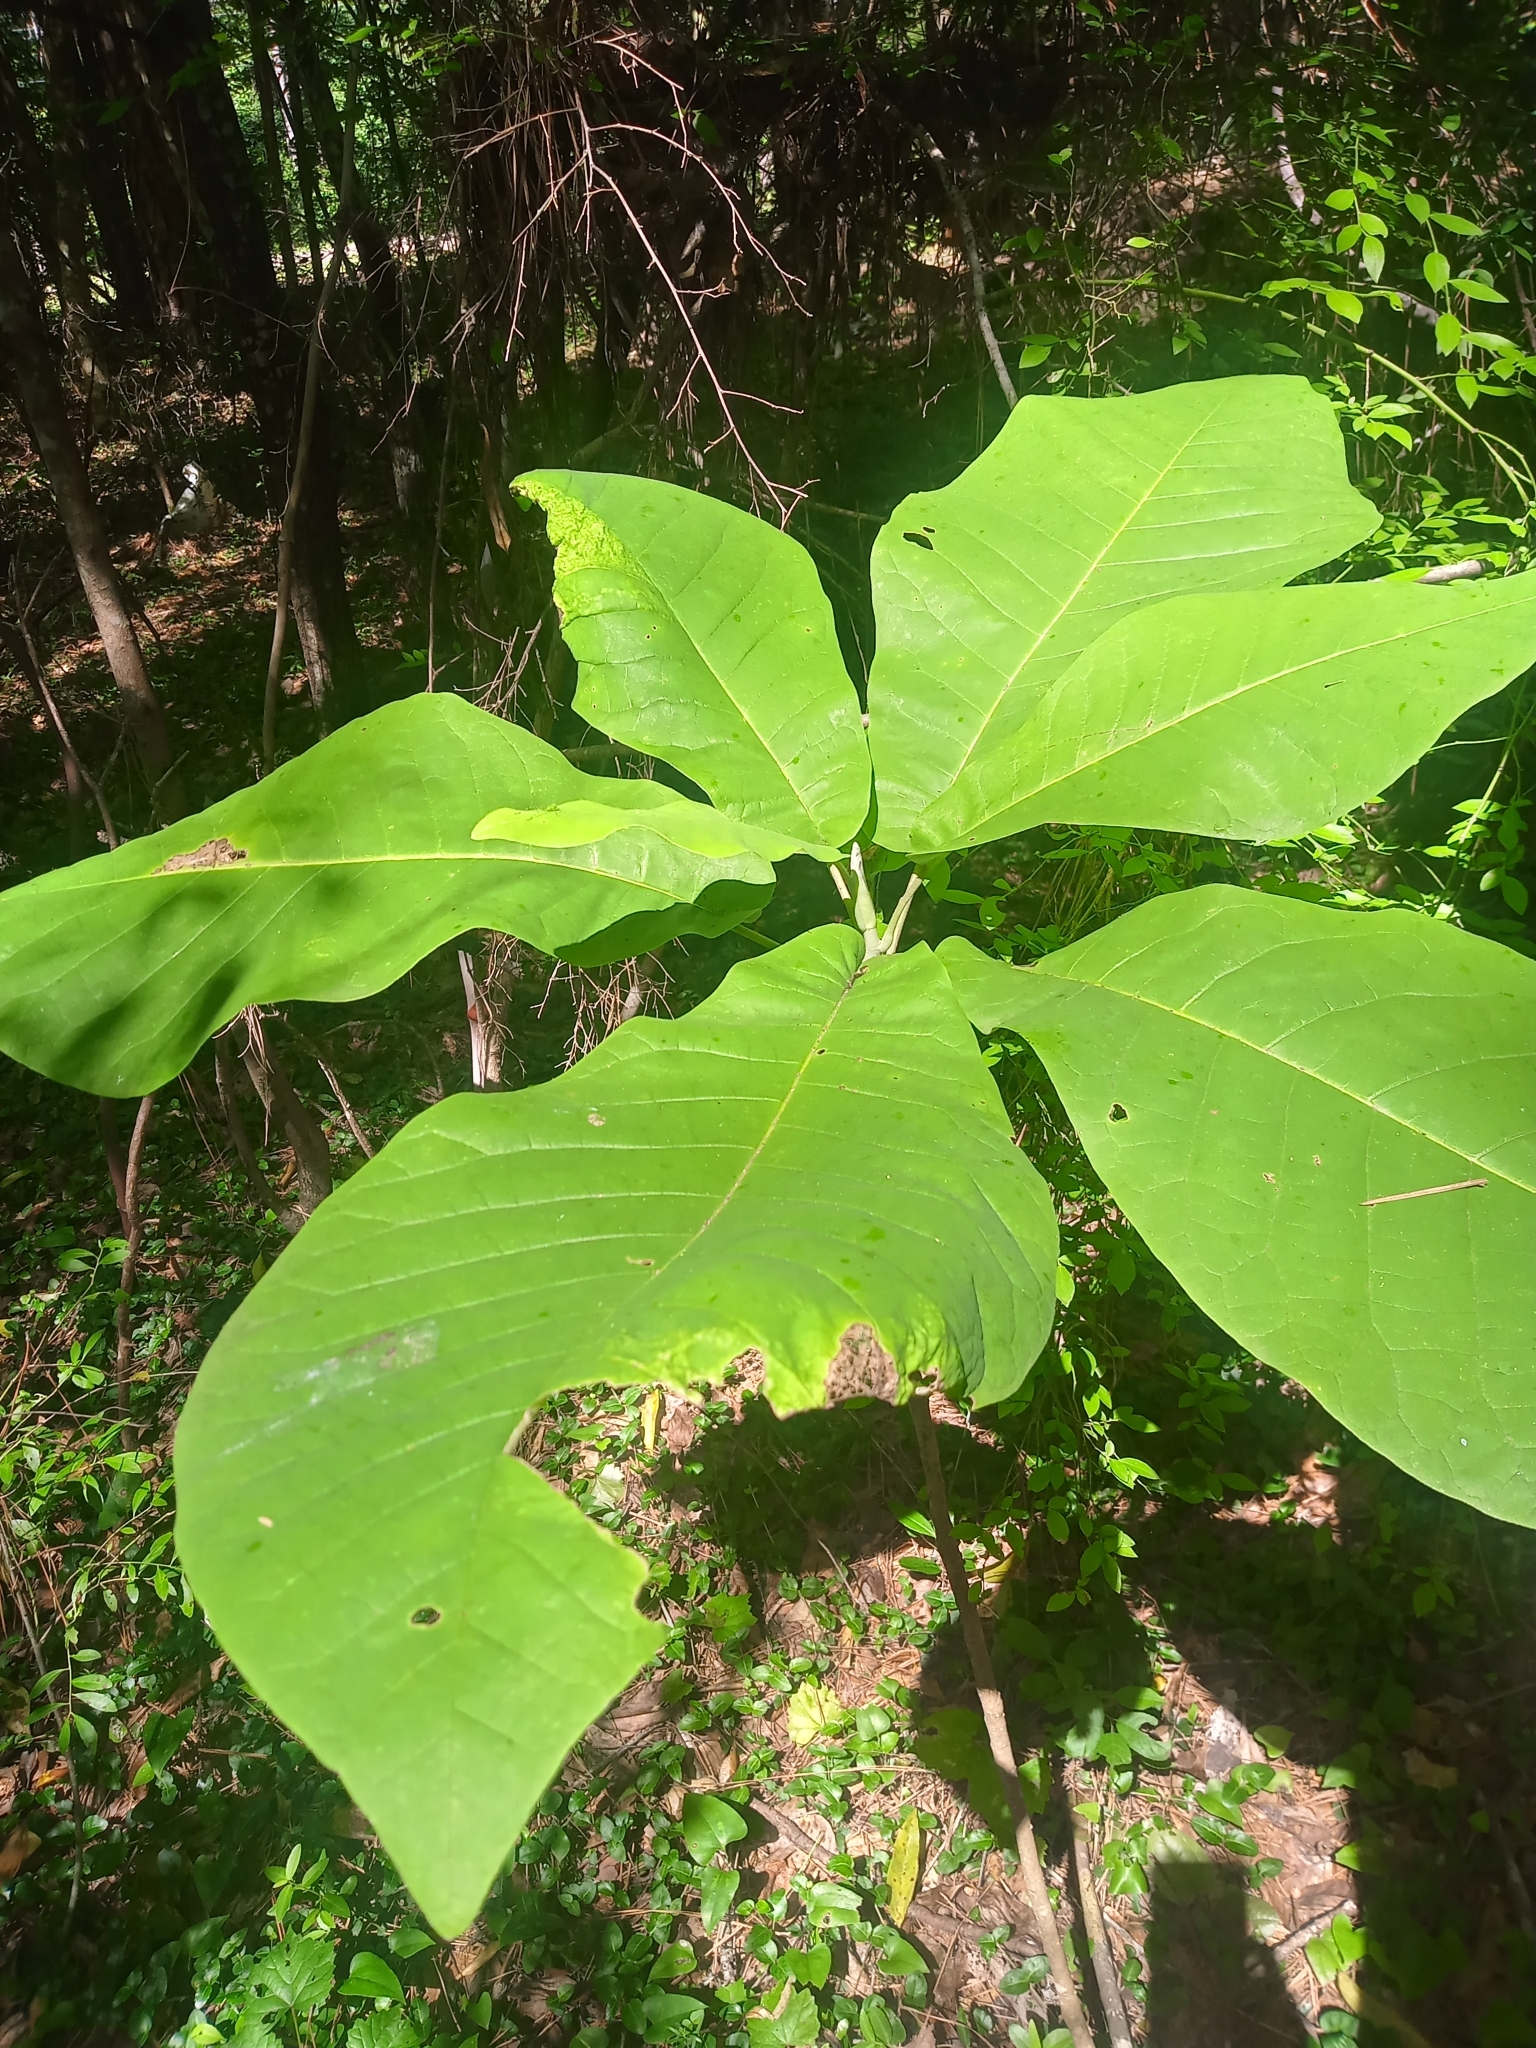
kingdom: Plantae
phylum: Tracheophyta
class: Magnoliopsida
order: Magnoliales
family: Magnoliaceae
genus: Magnolia
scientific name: Magnolia macrophylla
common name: Big-leaf magnolia
